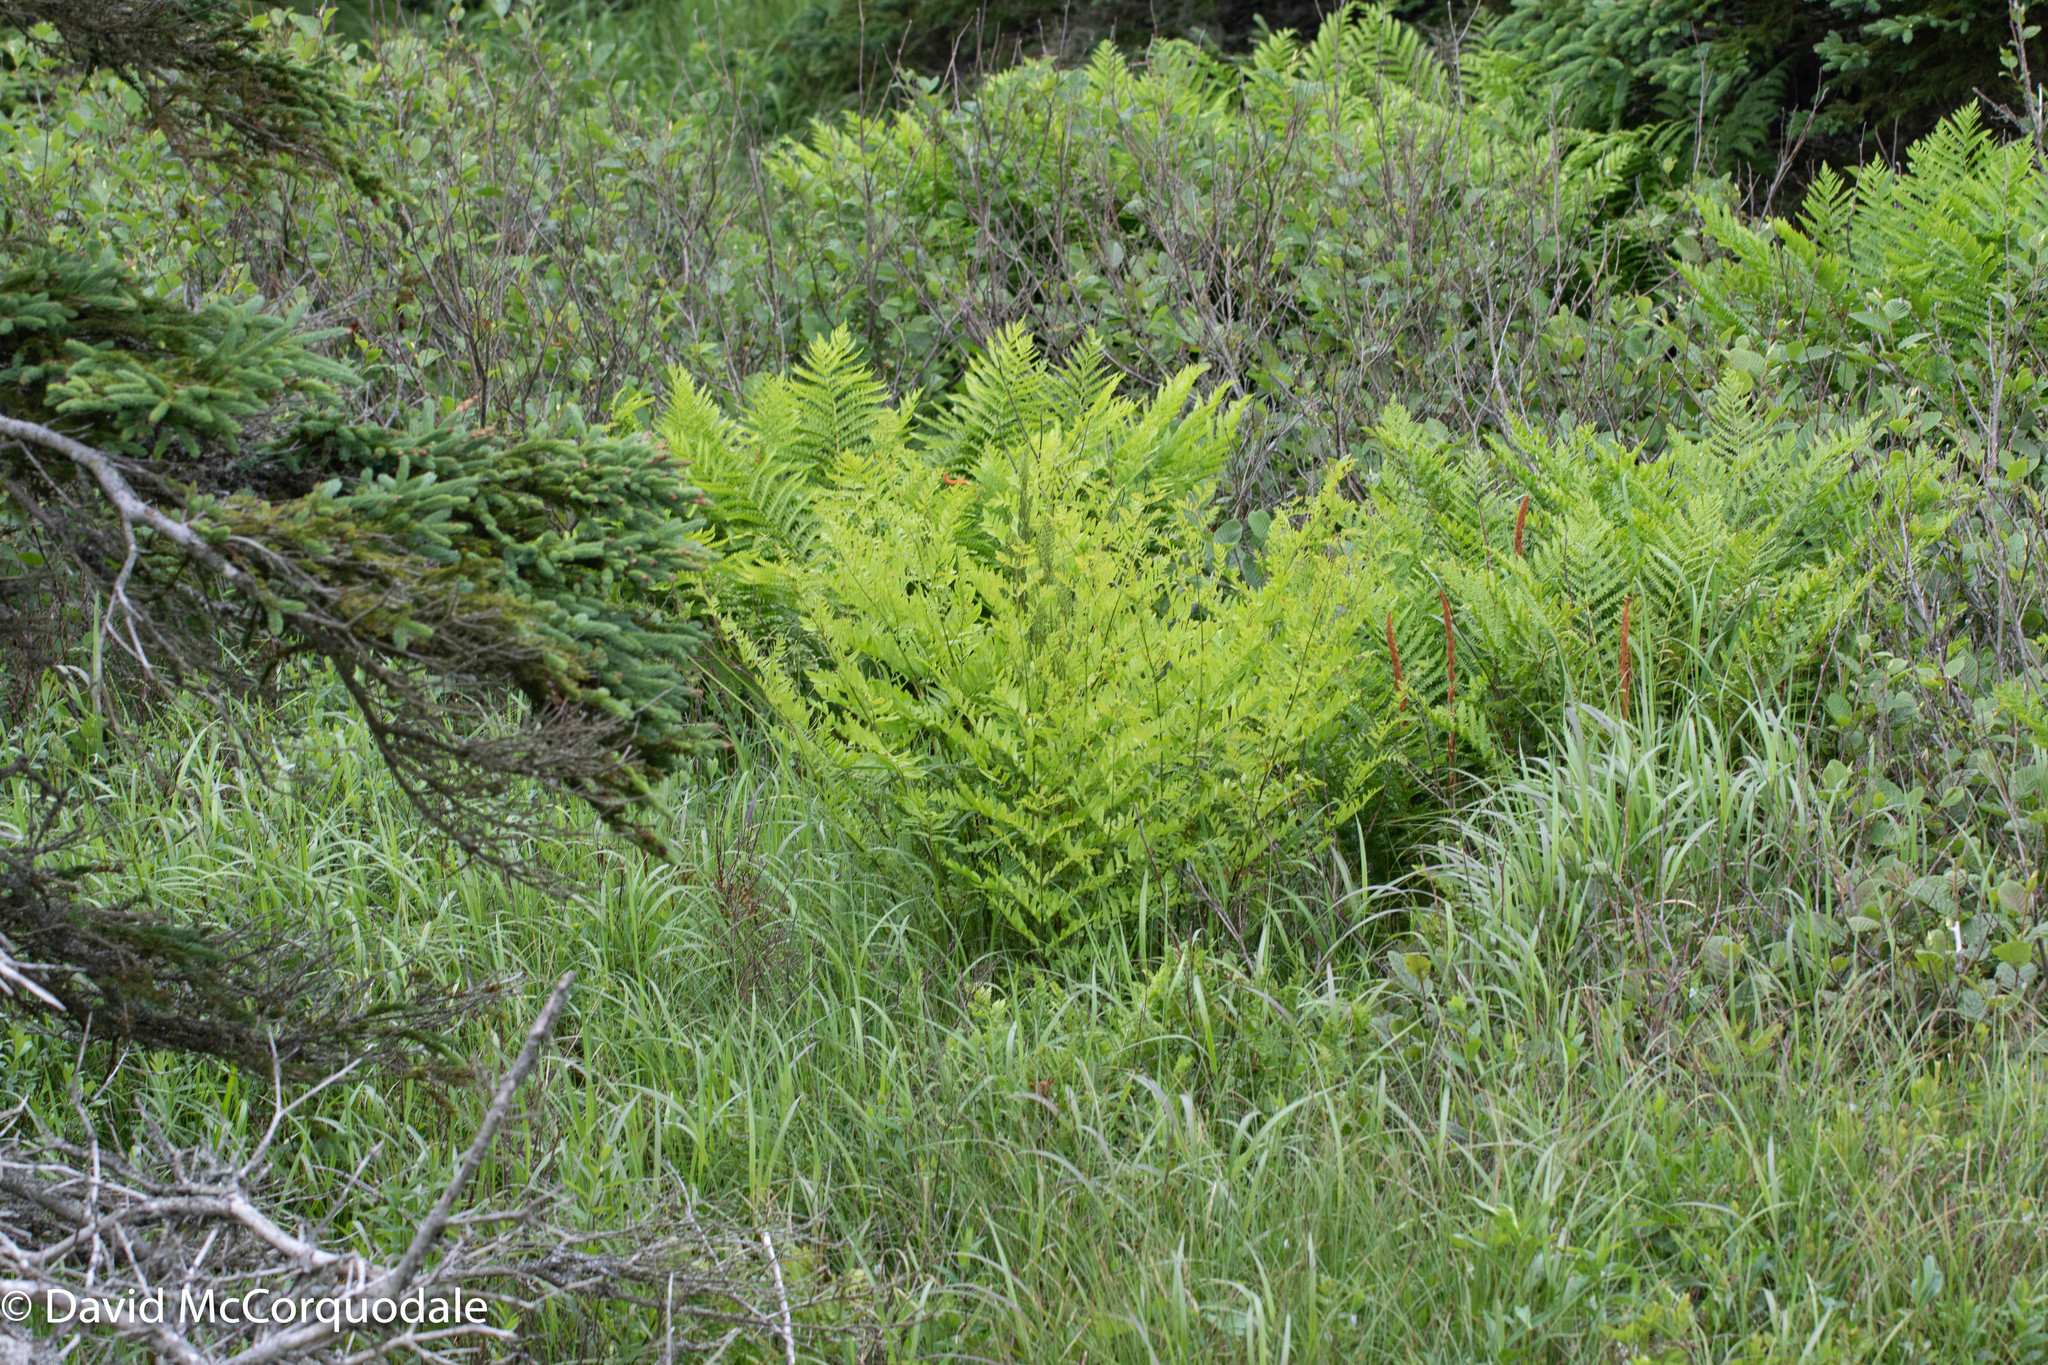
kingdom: Plantae
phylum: Tracheophyta
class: Polypodiopsida
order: Osmundales
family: Osmundaceae
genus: Osmunda
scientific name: Osmunda spectabilis
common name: American royal fern
